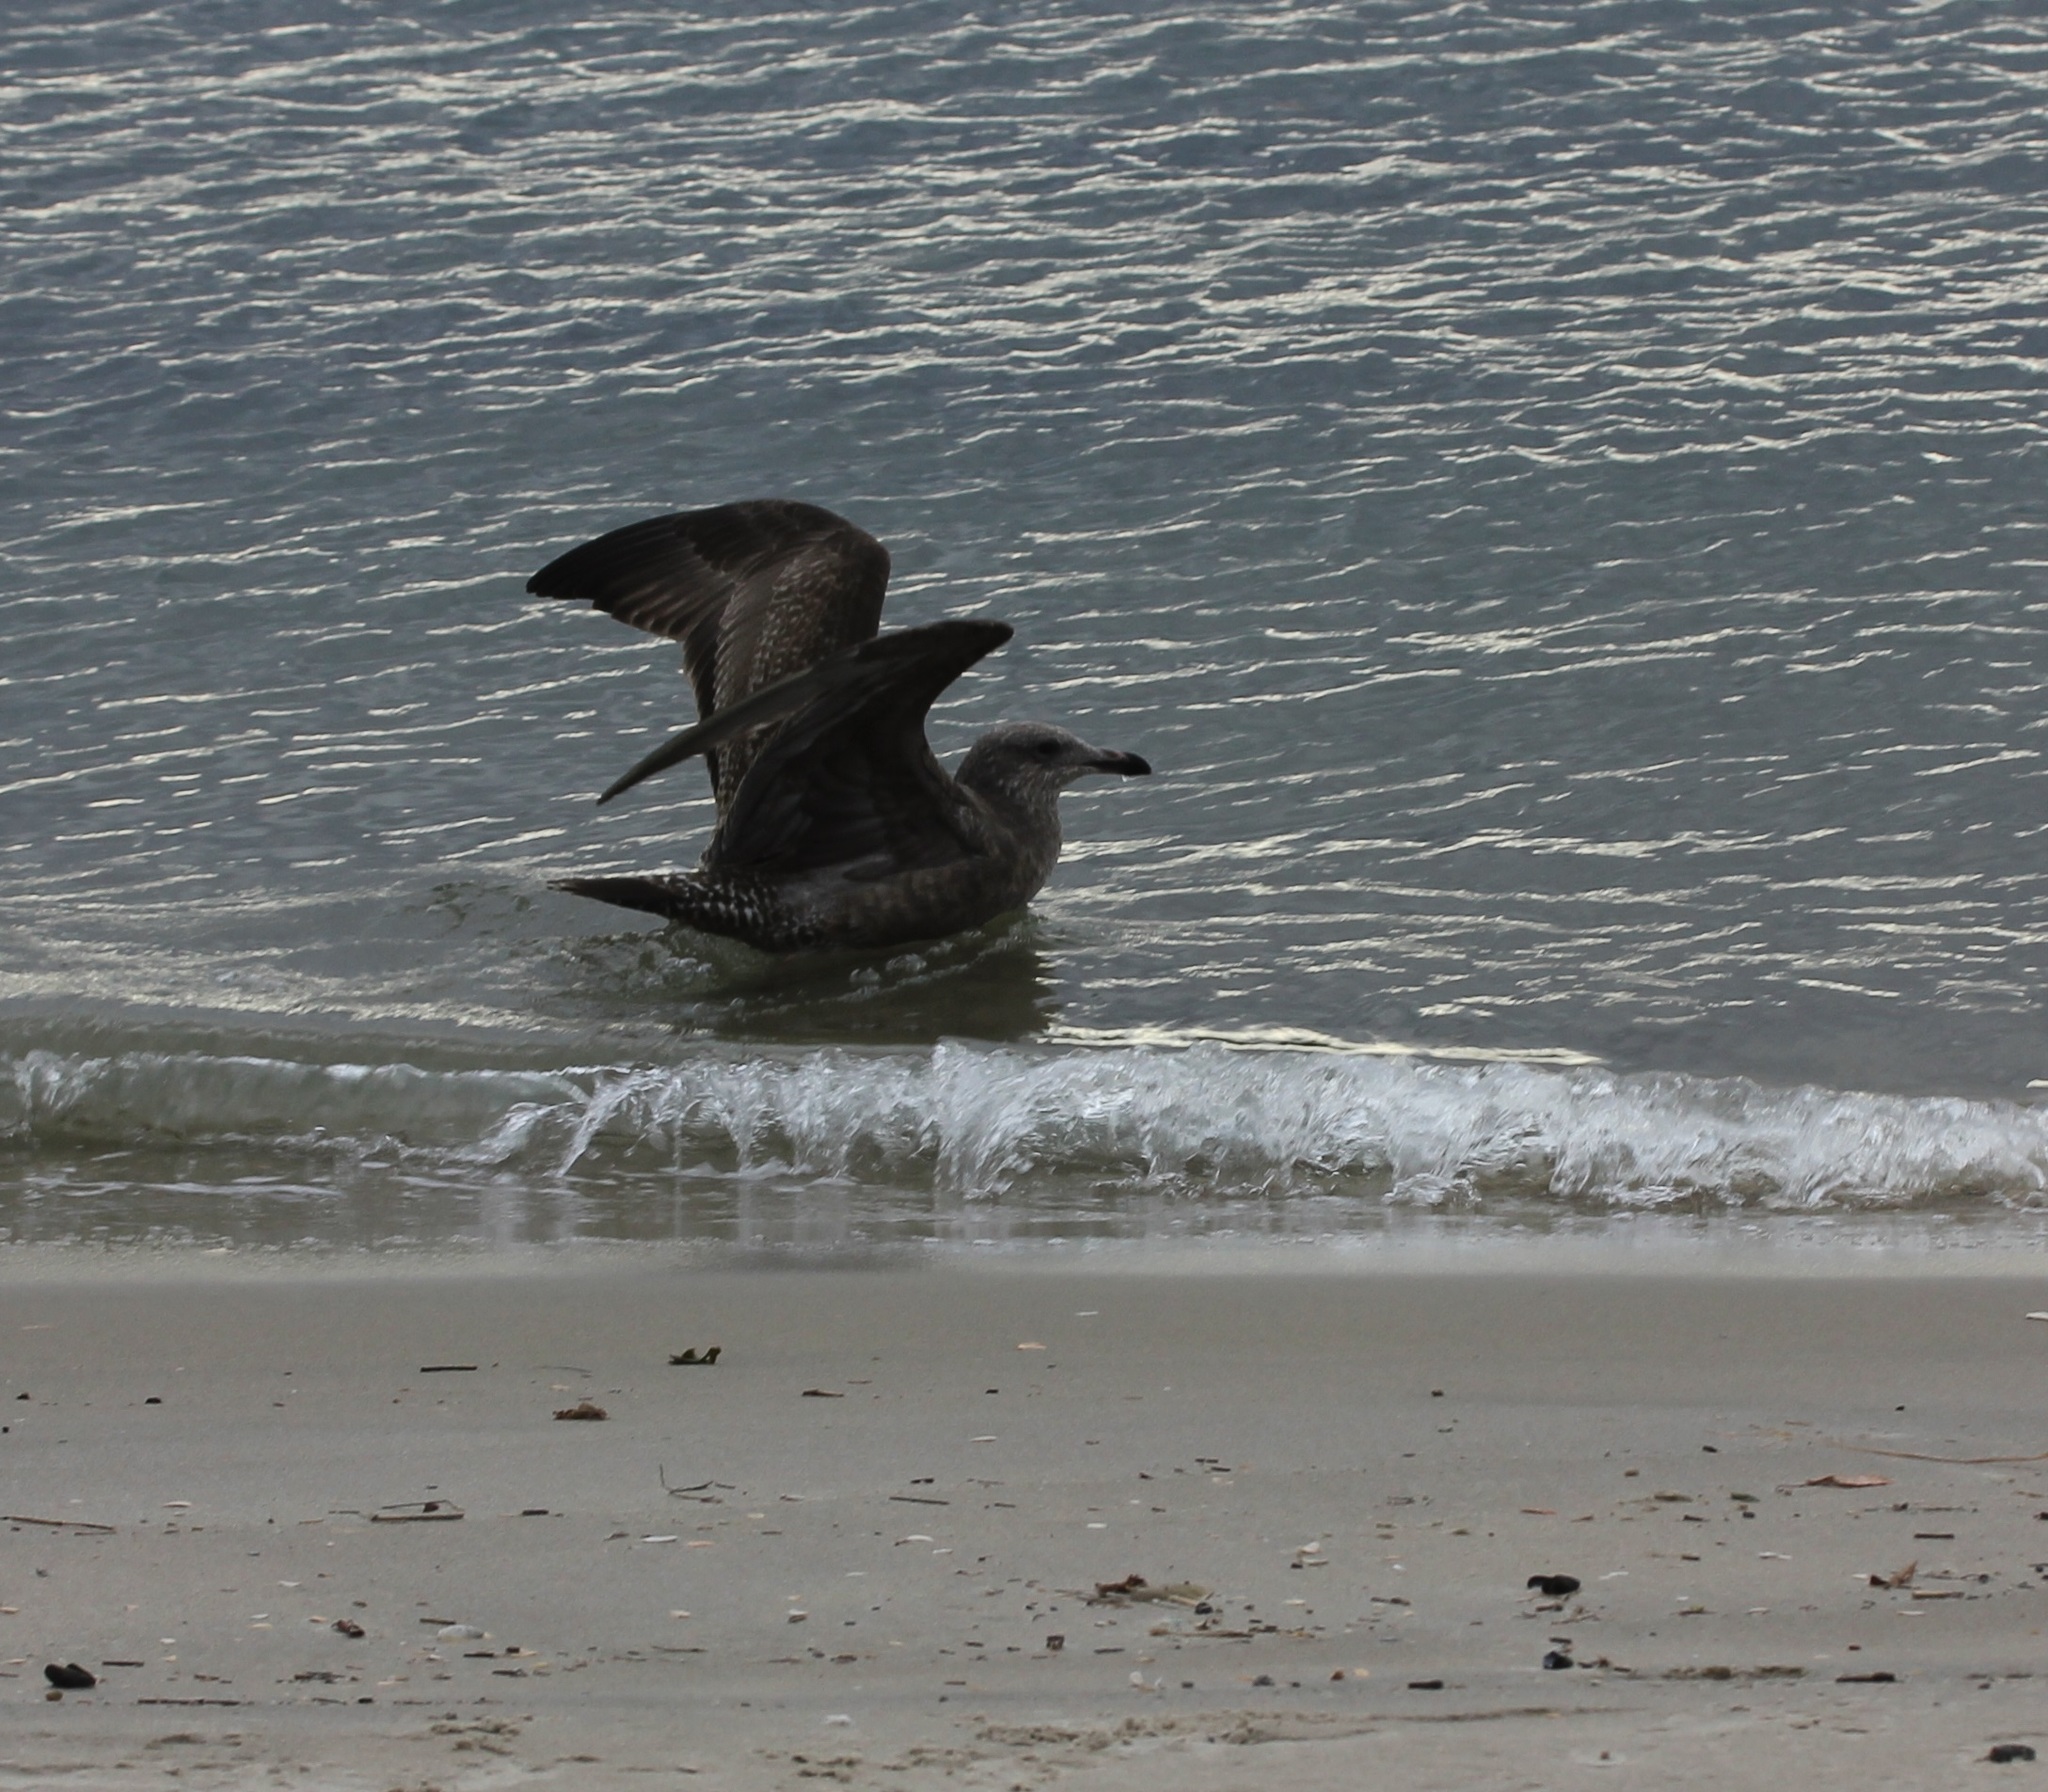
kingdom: Animalia
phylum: Chordata
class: Aves
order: Charadriiformes
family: Laridae
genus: Larus
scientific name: Larus argentatus
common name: Herring gull
